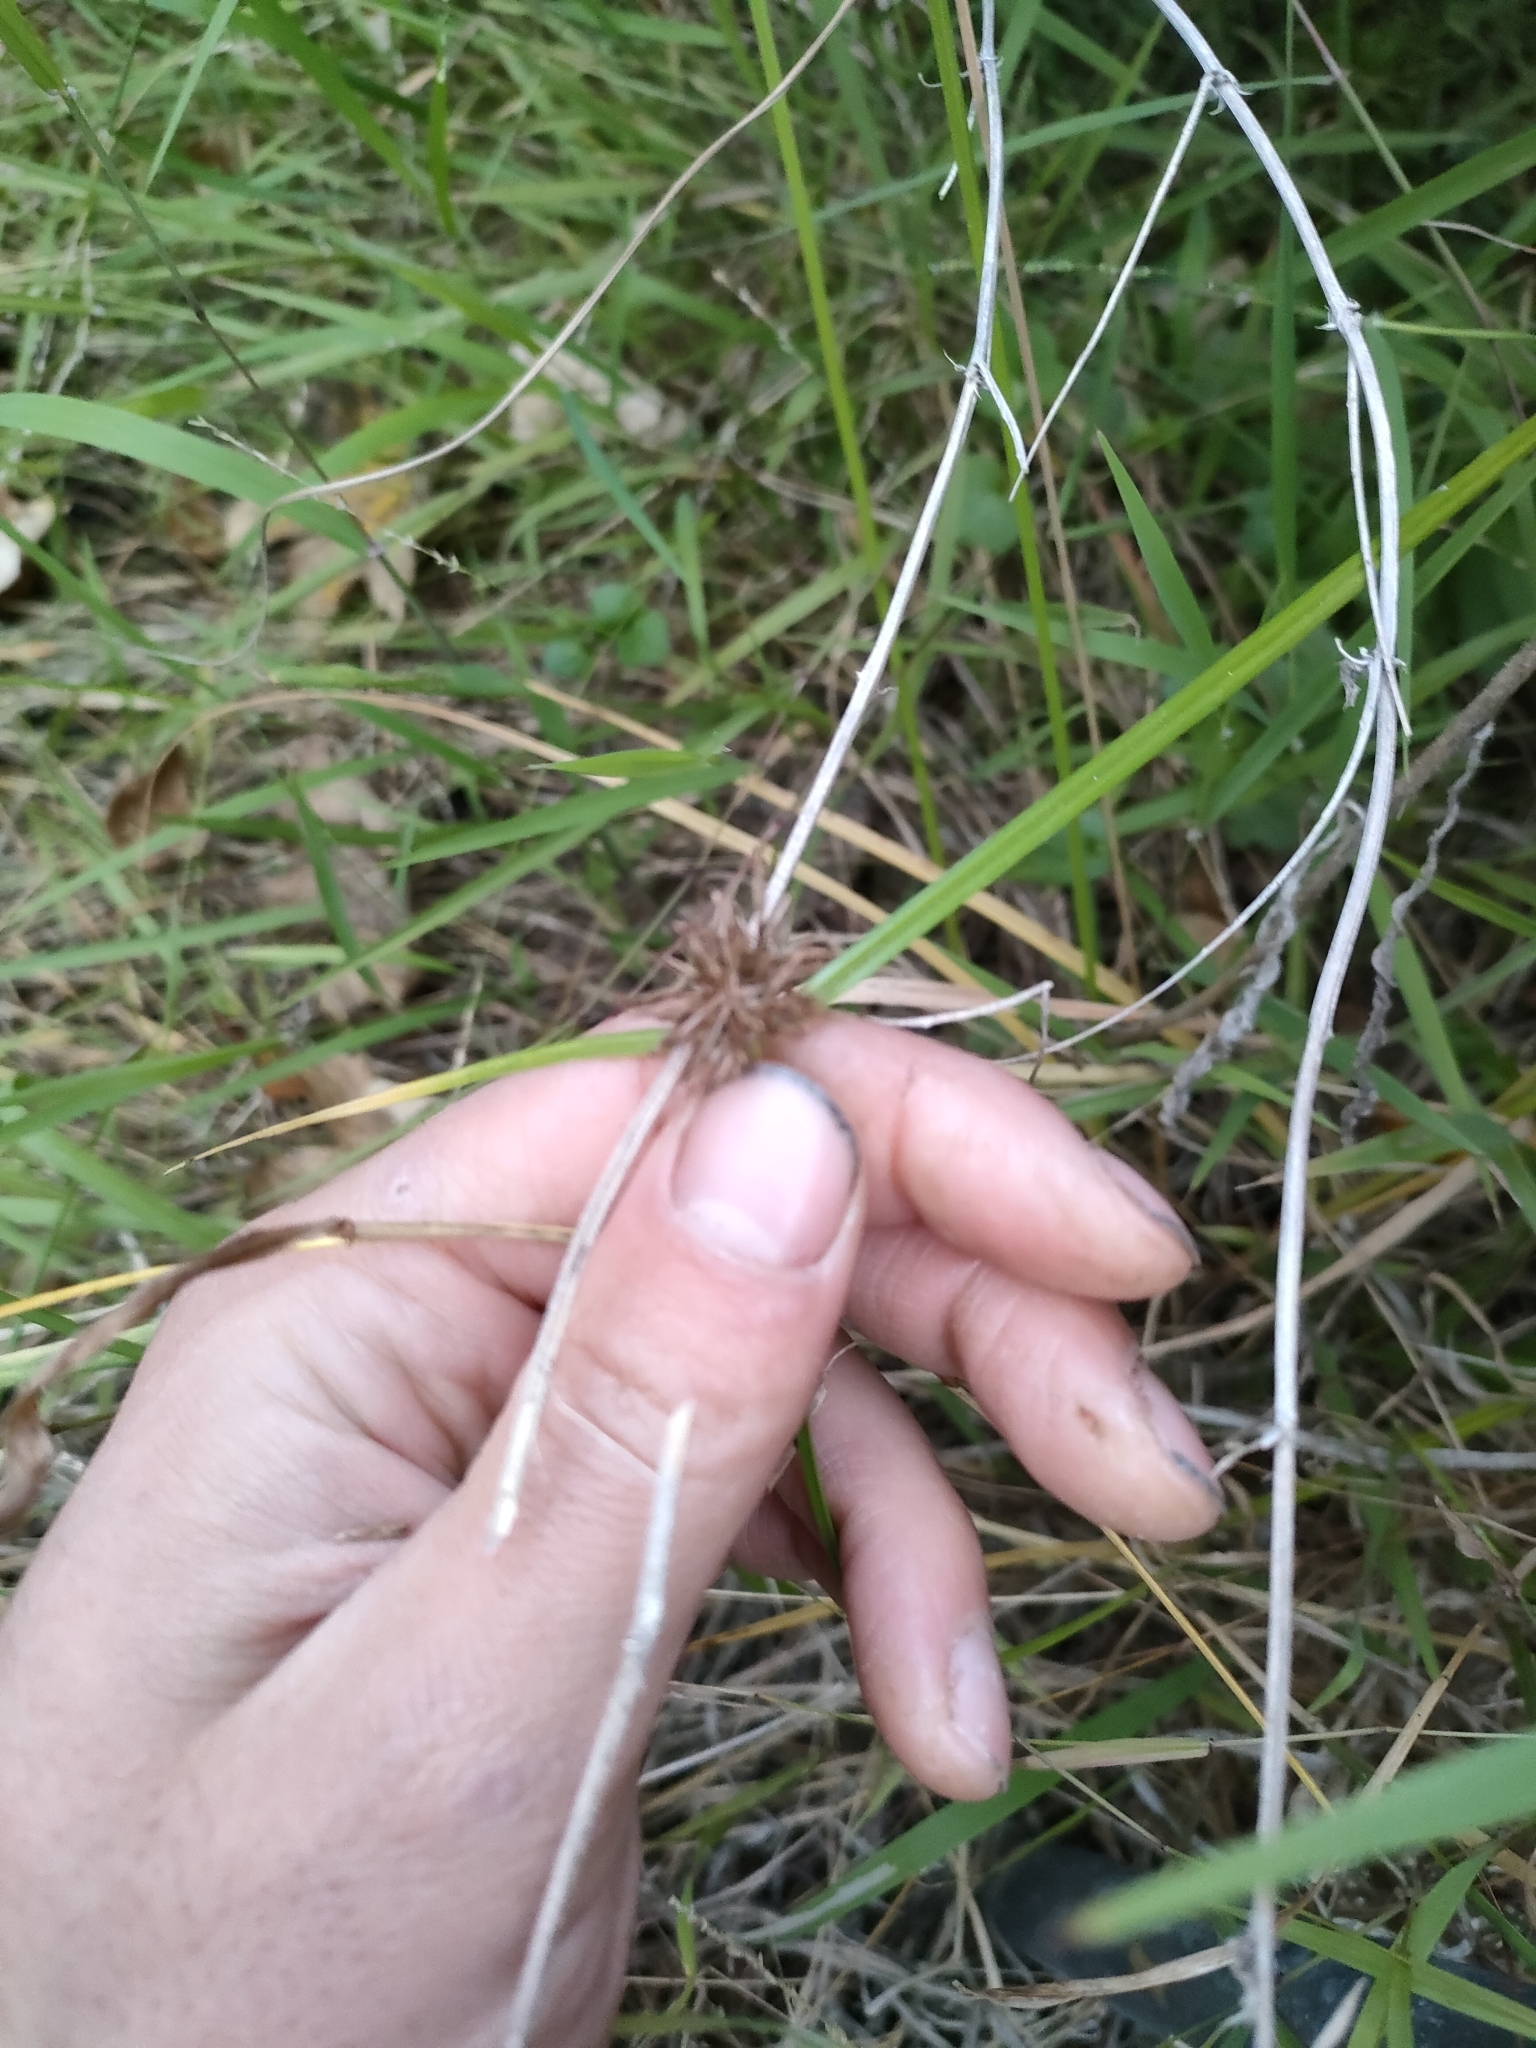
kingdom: Plantae
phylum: Tracheophyta
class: Liliopsida
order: Poales
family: Cyperaceae
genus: Cyperus
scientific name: Cyperus congestus
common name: Dense flat sedge
